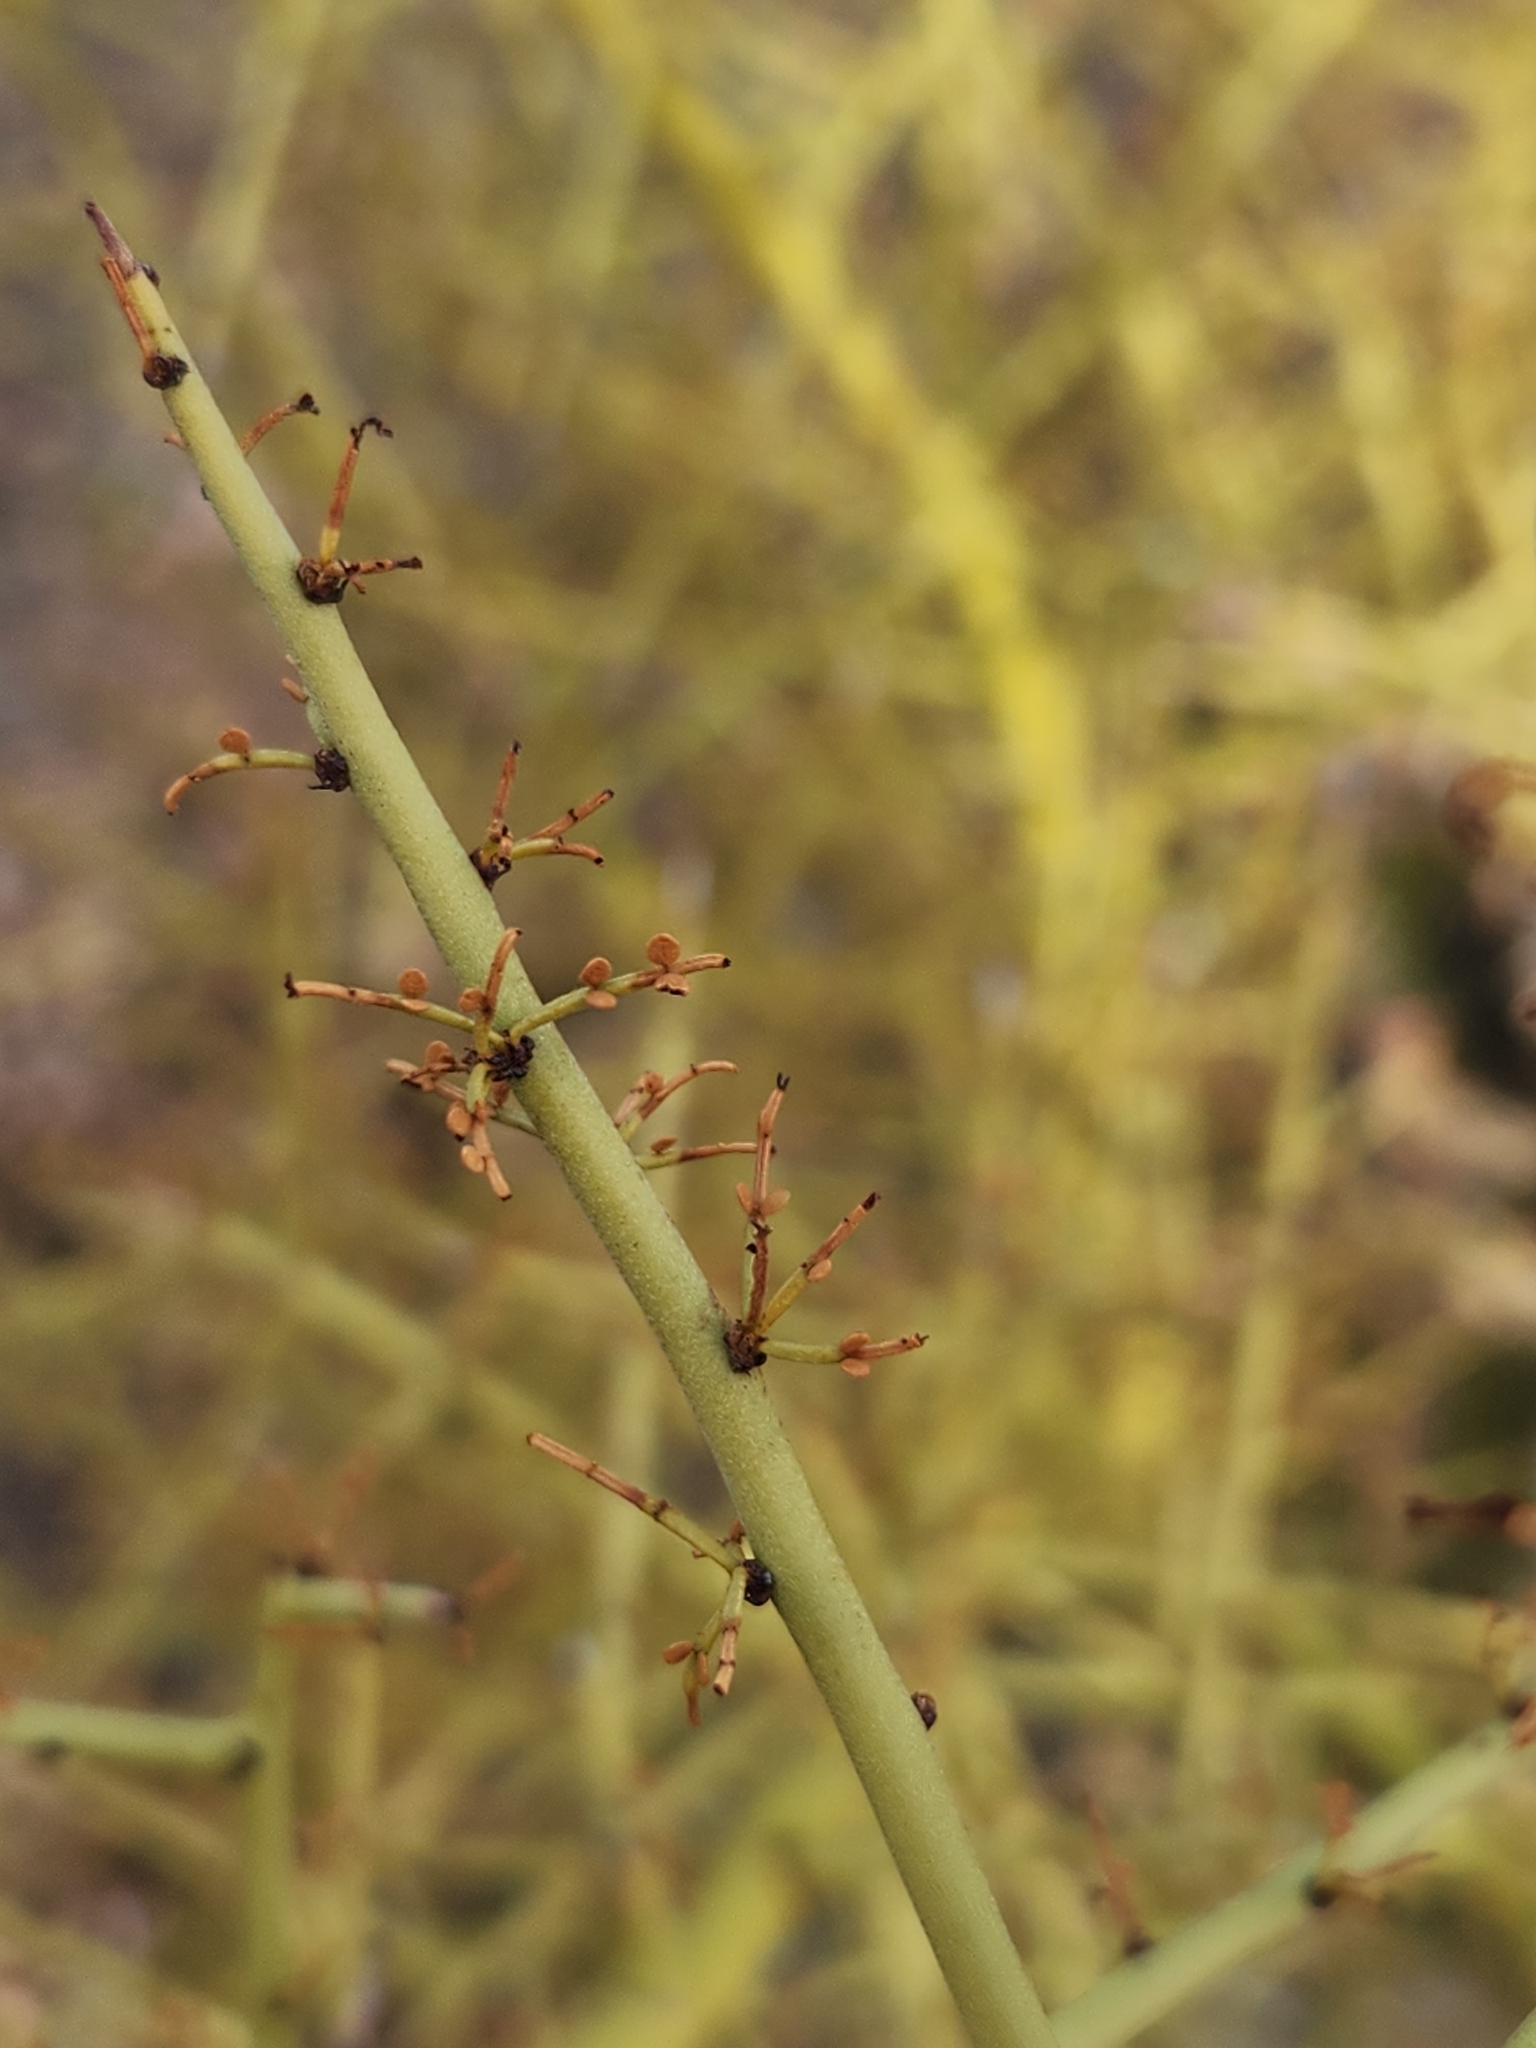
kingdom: Plantae
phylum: Tracheophyta
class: Magnoliopsida
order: Fabales
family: Fabaceae
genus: Parkinsonia
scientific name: Parkinsonia microphylla
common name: Yellow paloverde
